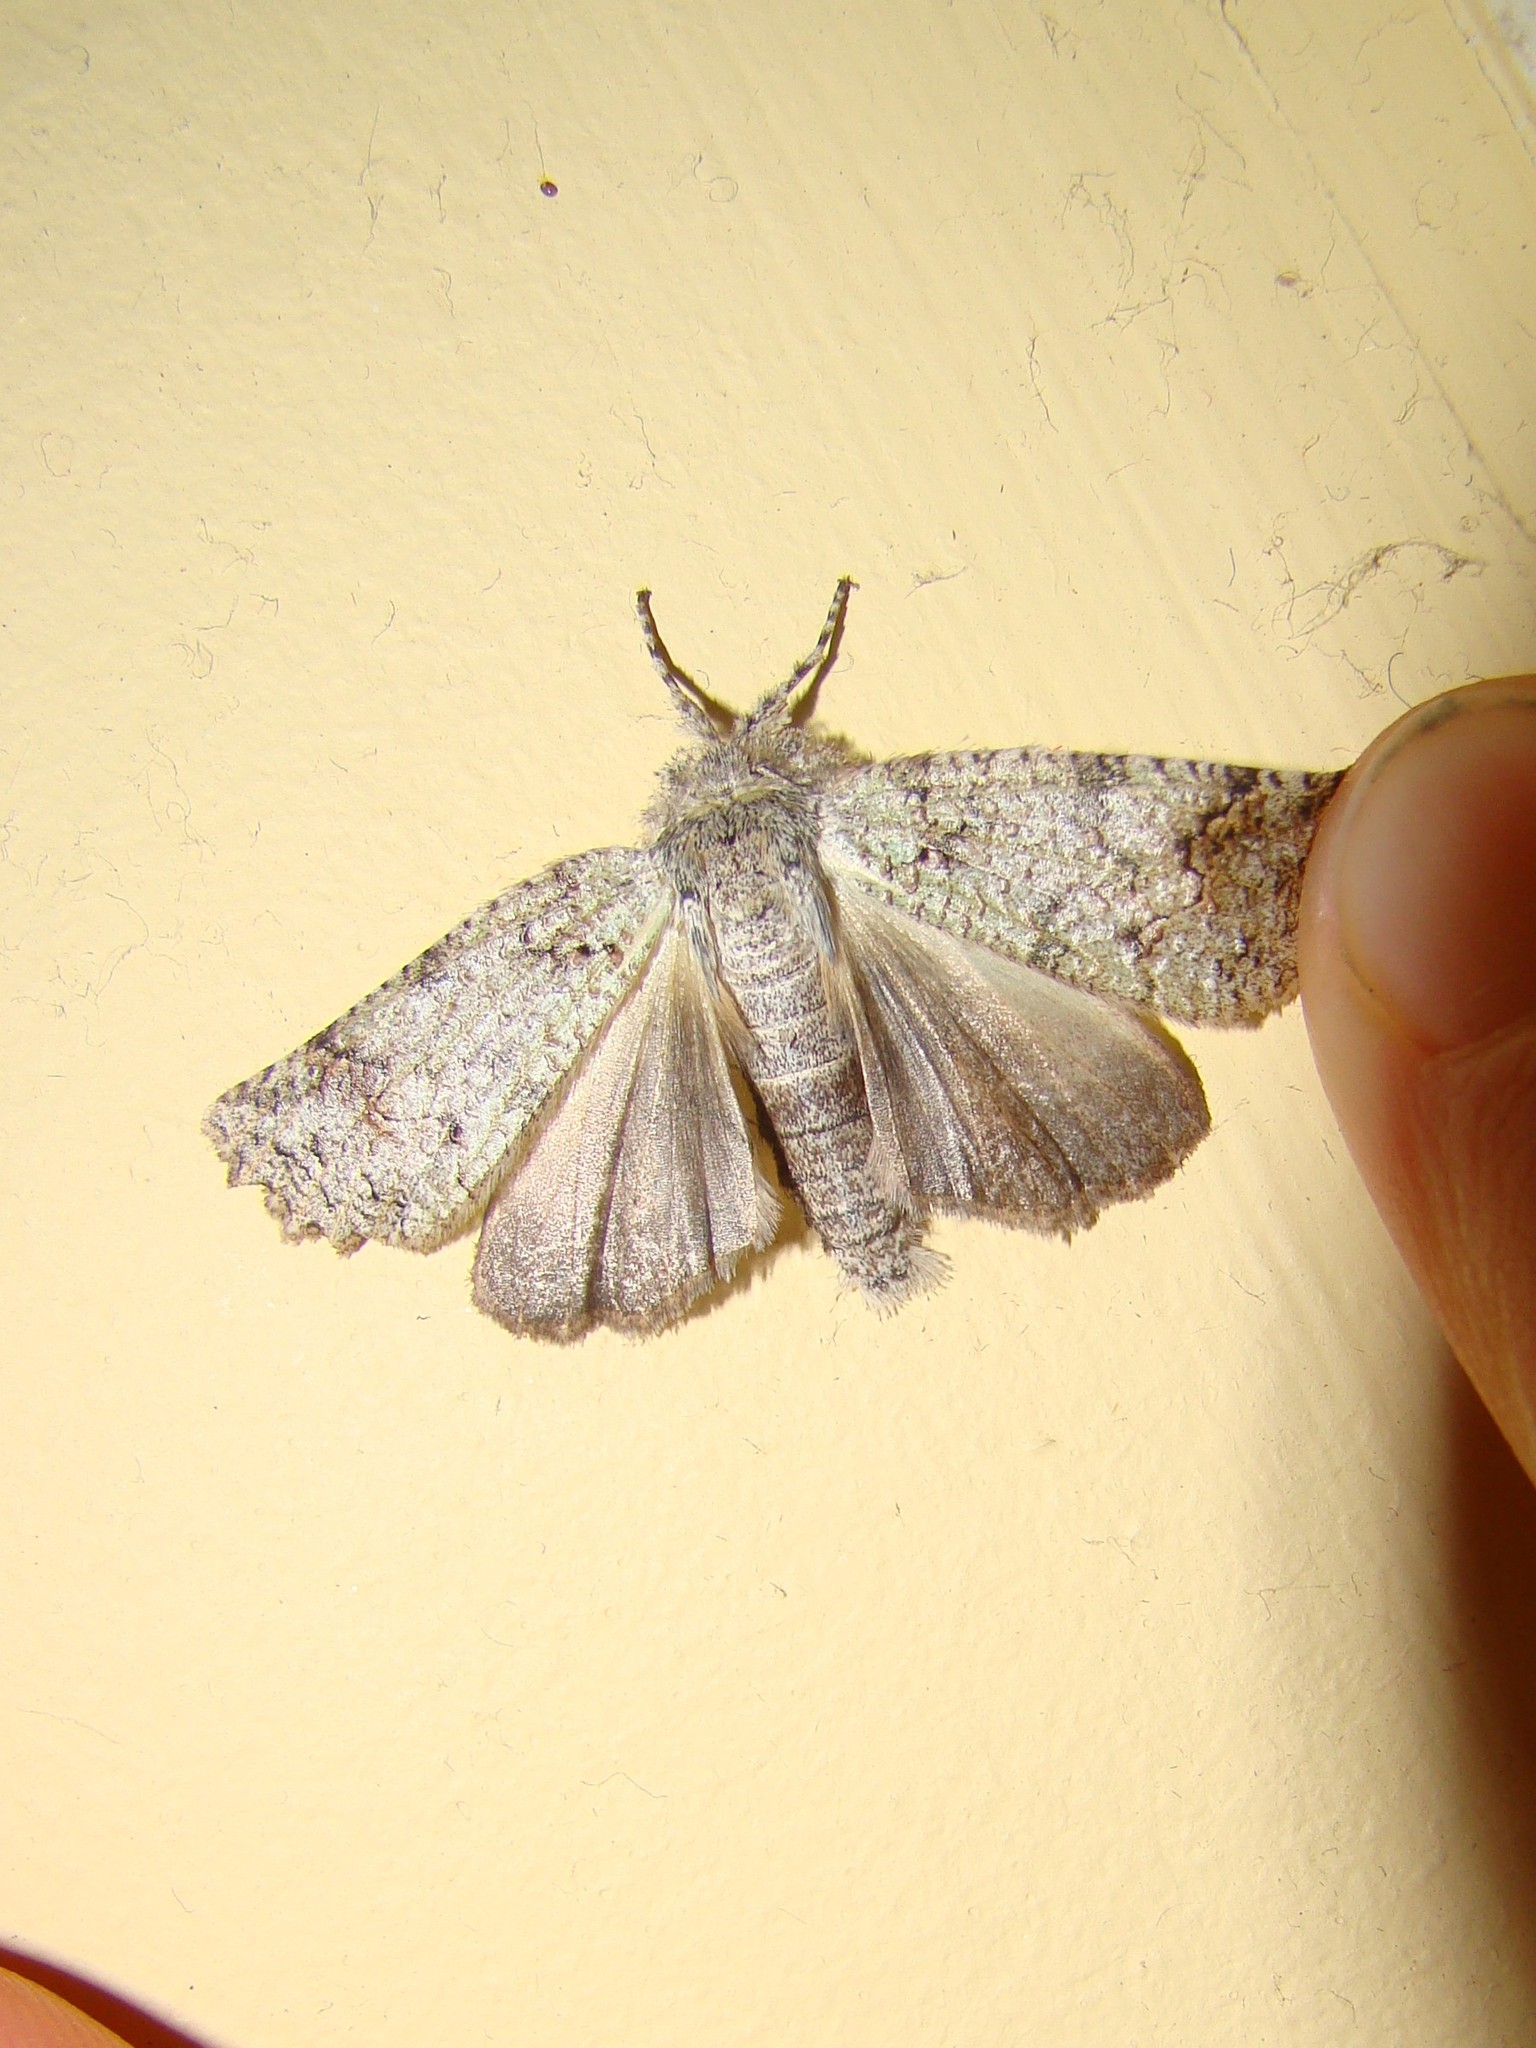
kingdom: Animalia
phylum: Arthropoda
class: Insecta
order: Lepidoptera
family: Geometridae
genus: Declana
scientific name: Declana floccosa
